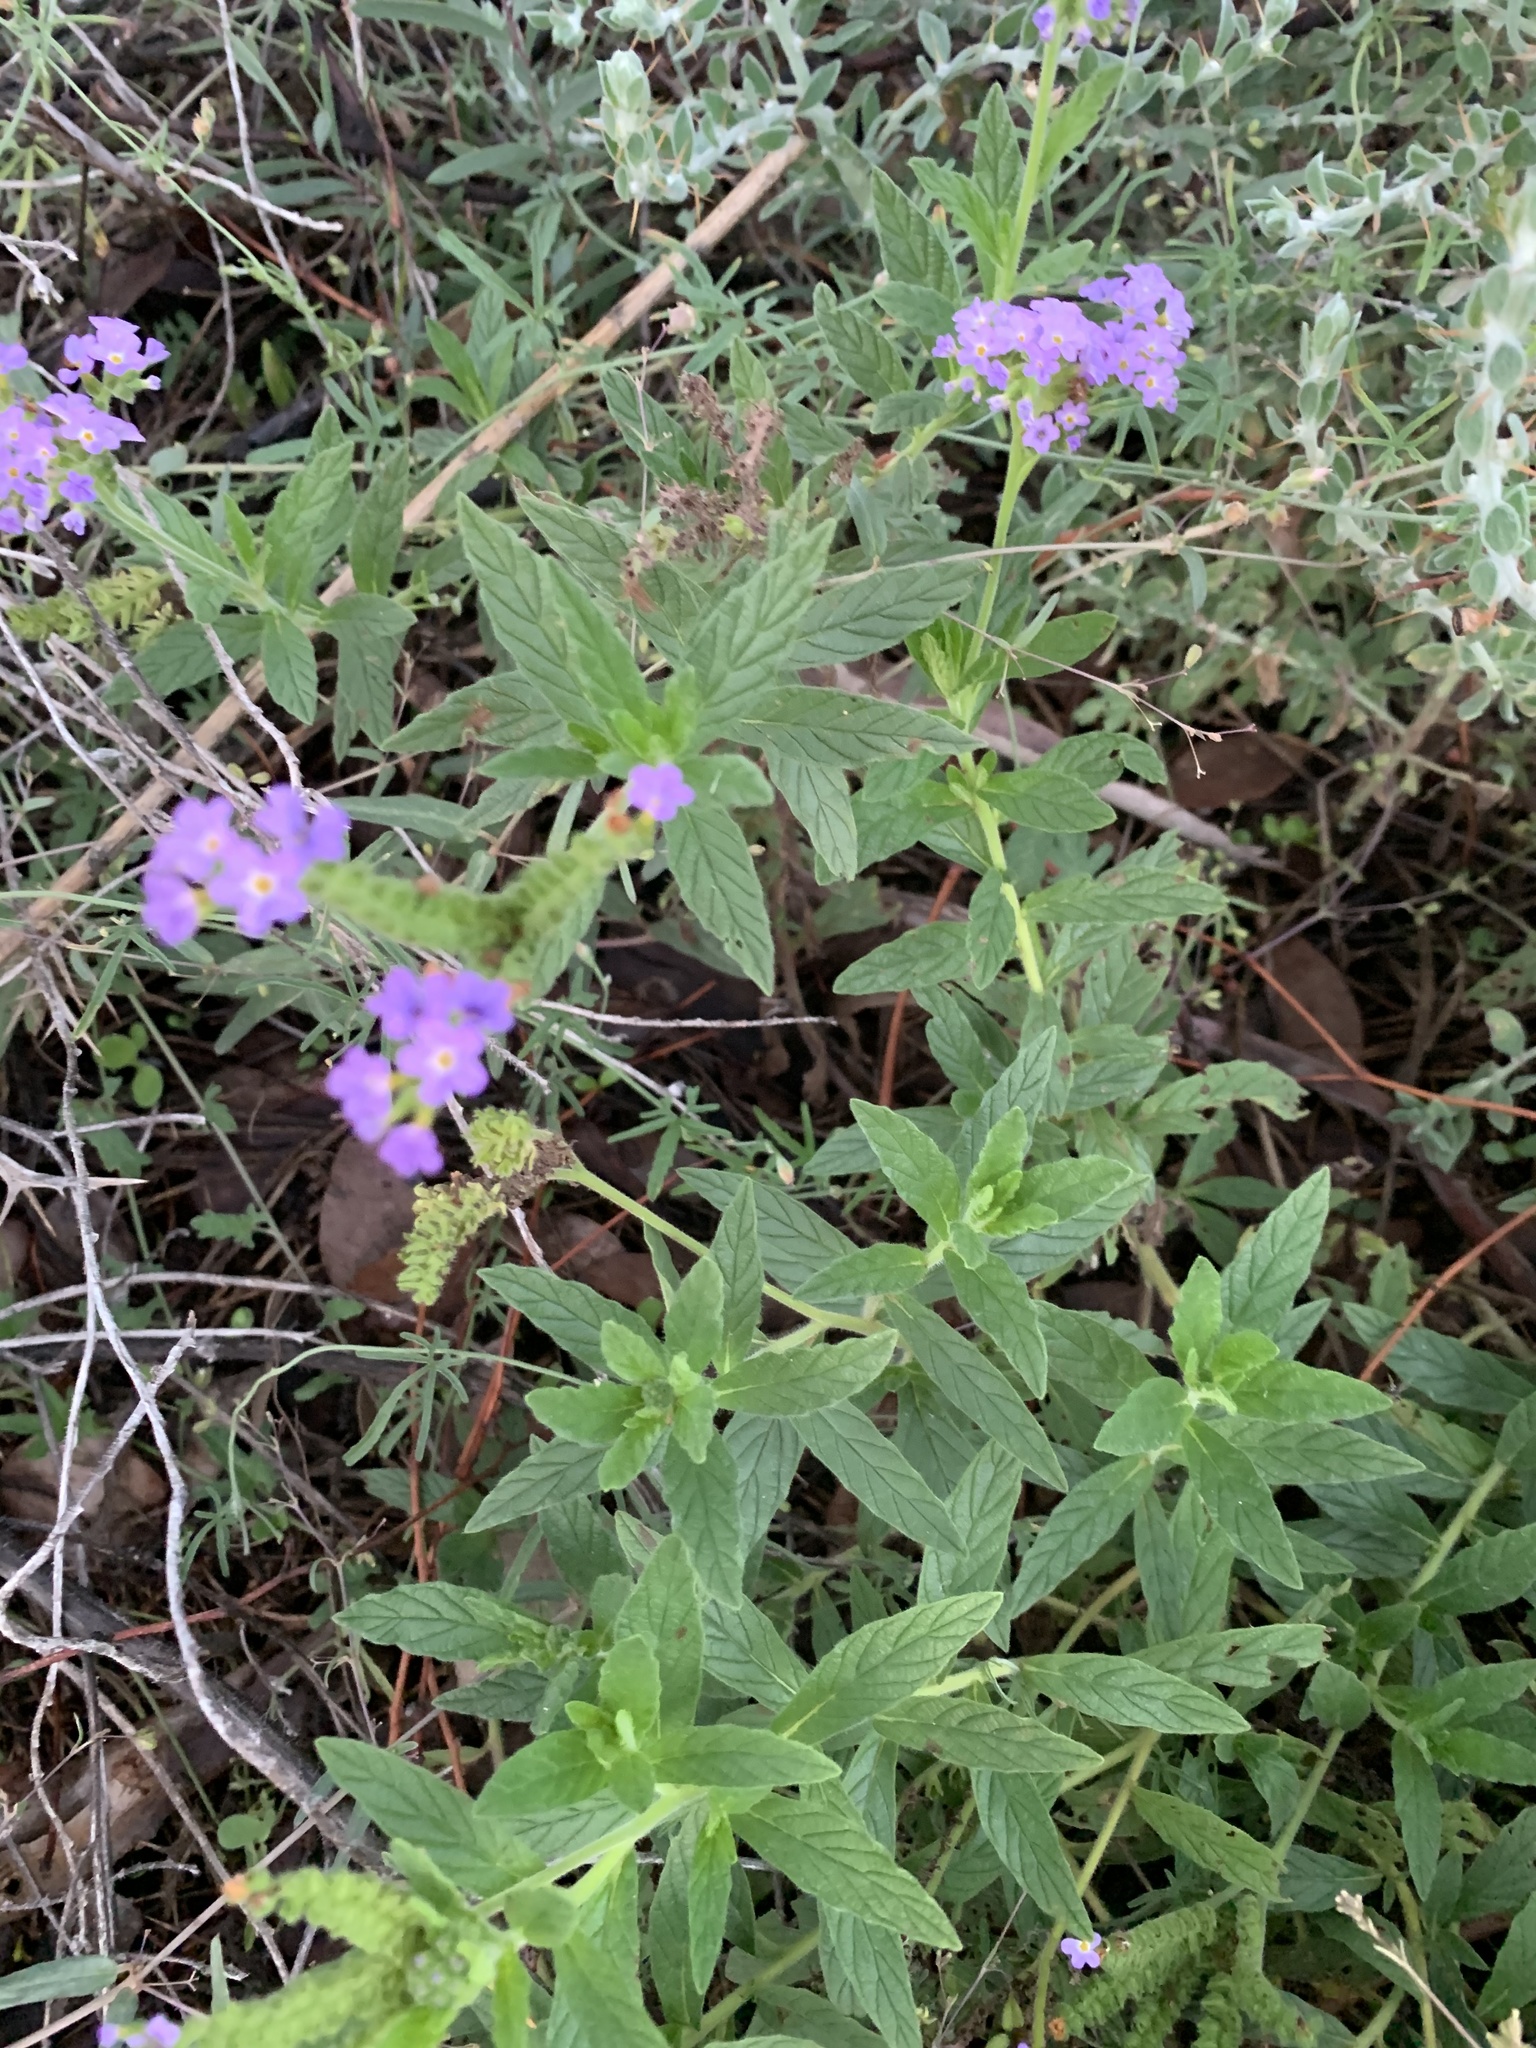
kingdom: Plantae
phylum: Tracheophyta
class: Magnoliopsida
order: Boraginales
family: Heliotropiaceae
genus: Heliotropium
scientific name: Heliotropium amplexicaule
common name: Clasping heliotrope
